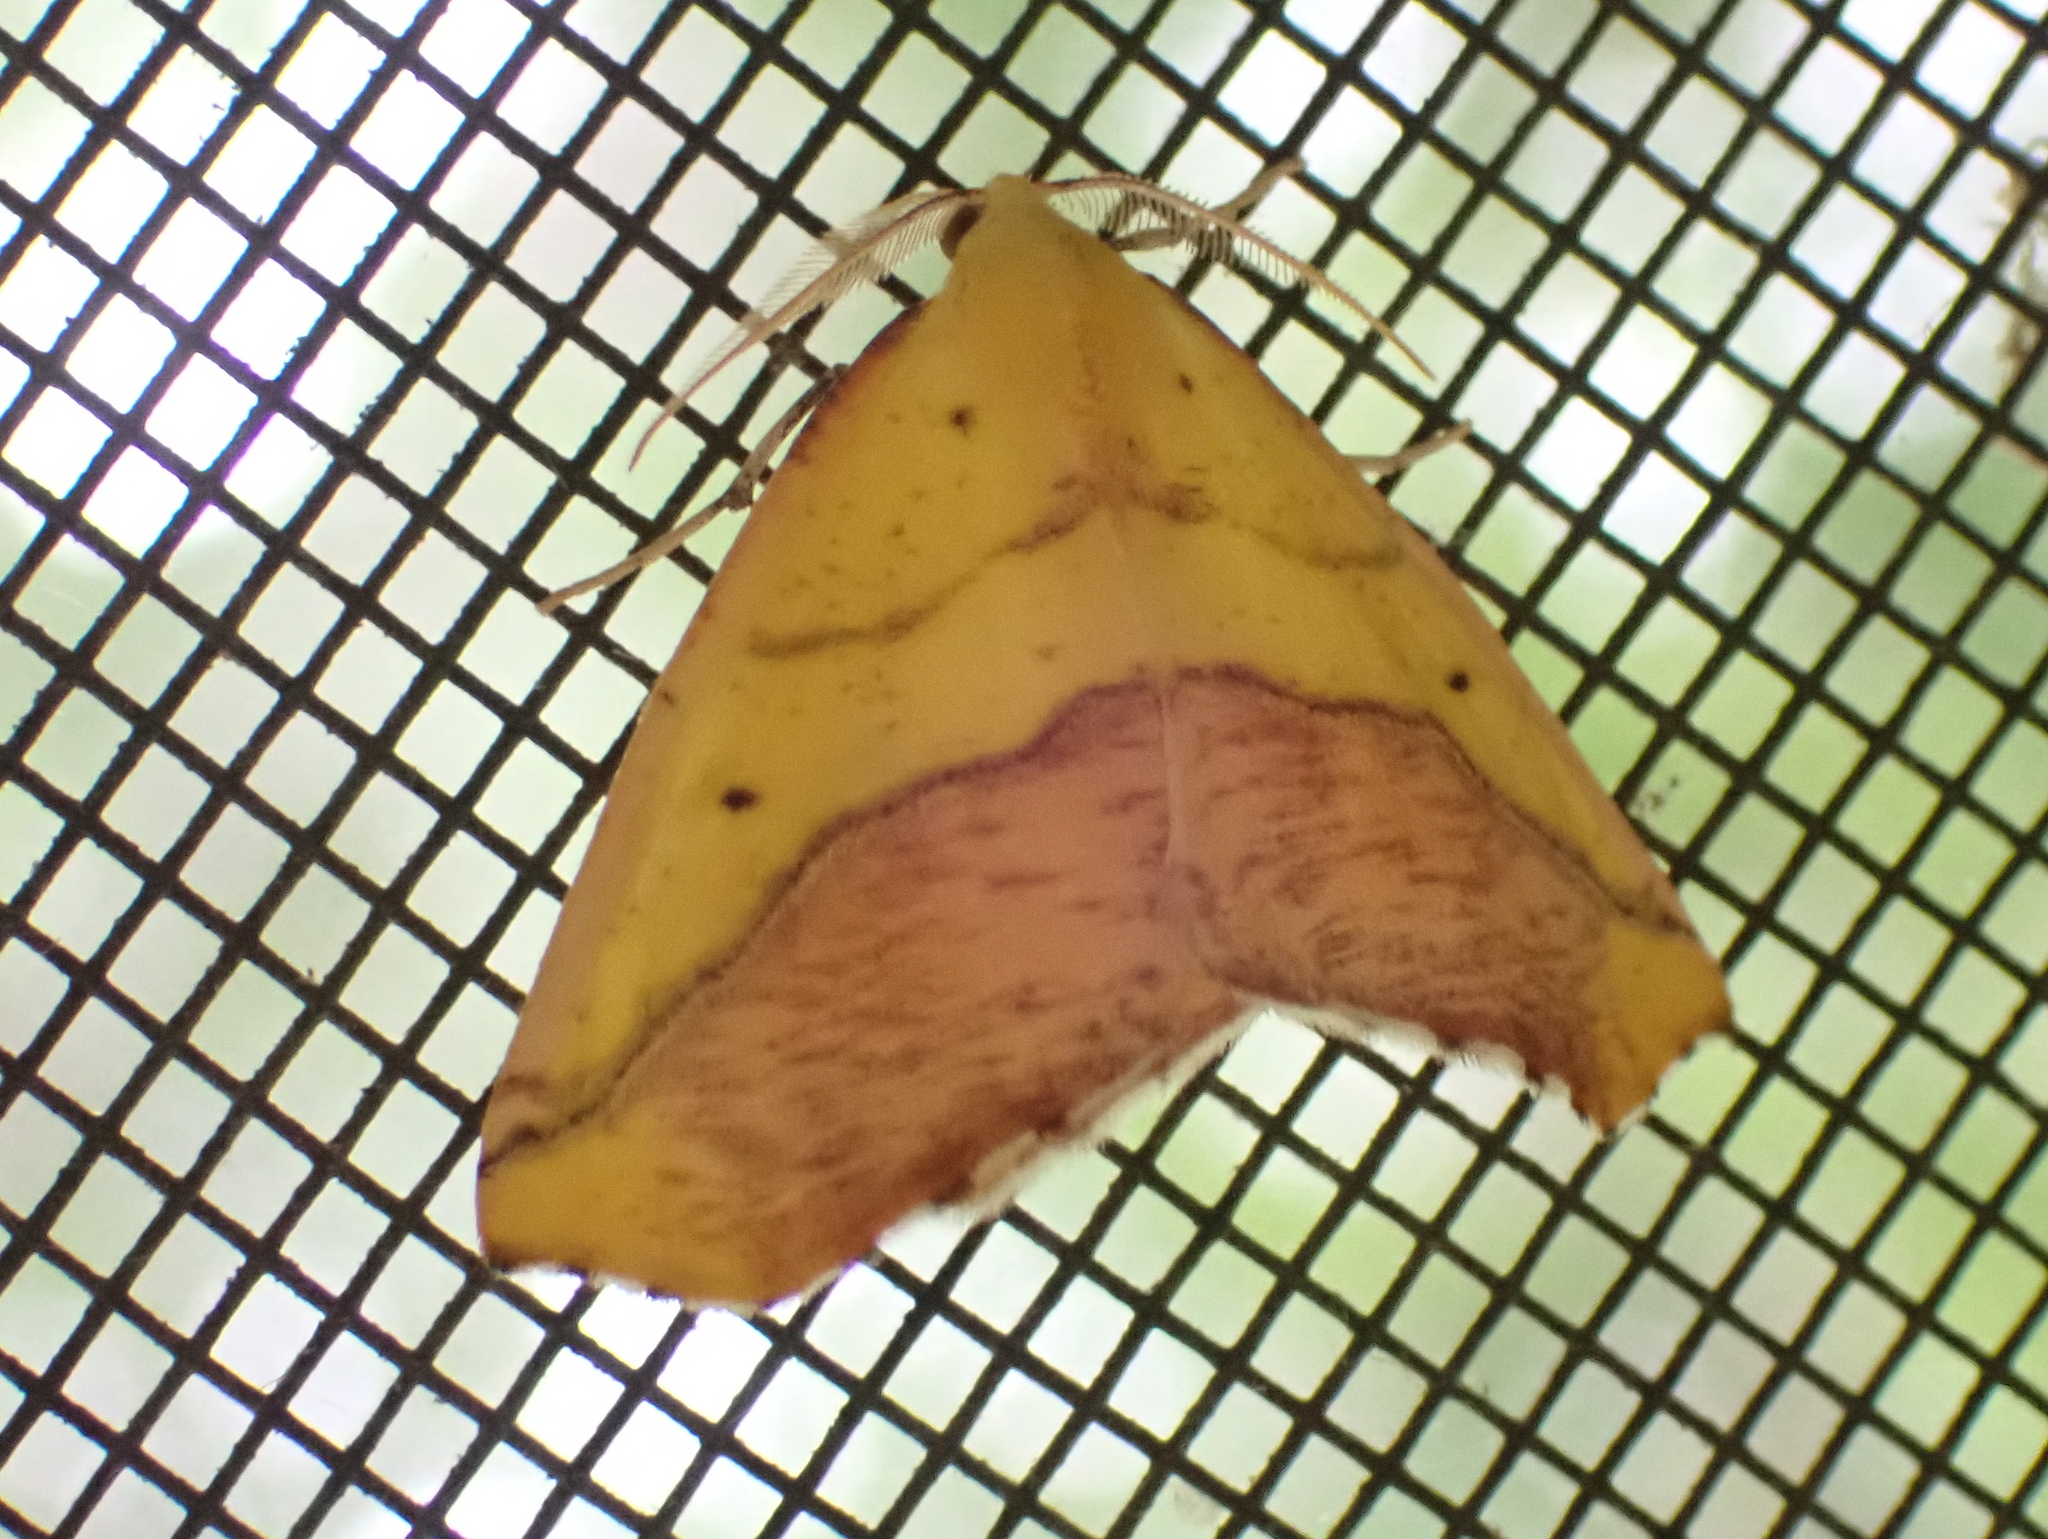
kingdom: Animalia
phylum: Arthropoda
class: Insecta
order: Lepidoptera
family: Geometridae
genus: Sicya
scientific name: Sicya macularia
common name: Sharp-lined yellow
